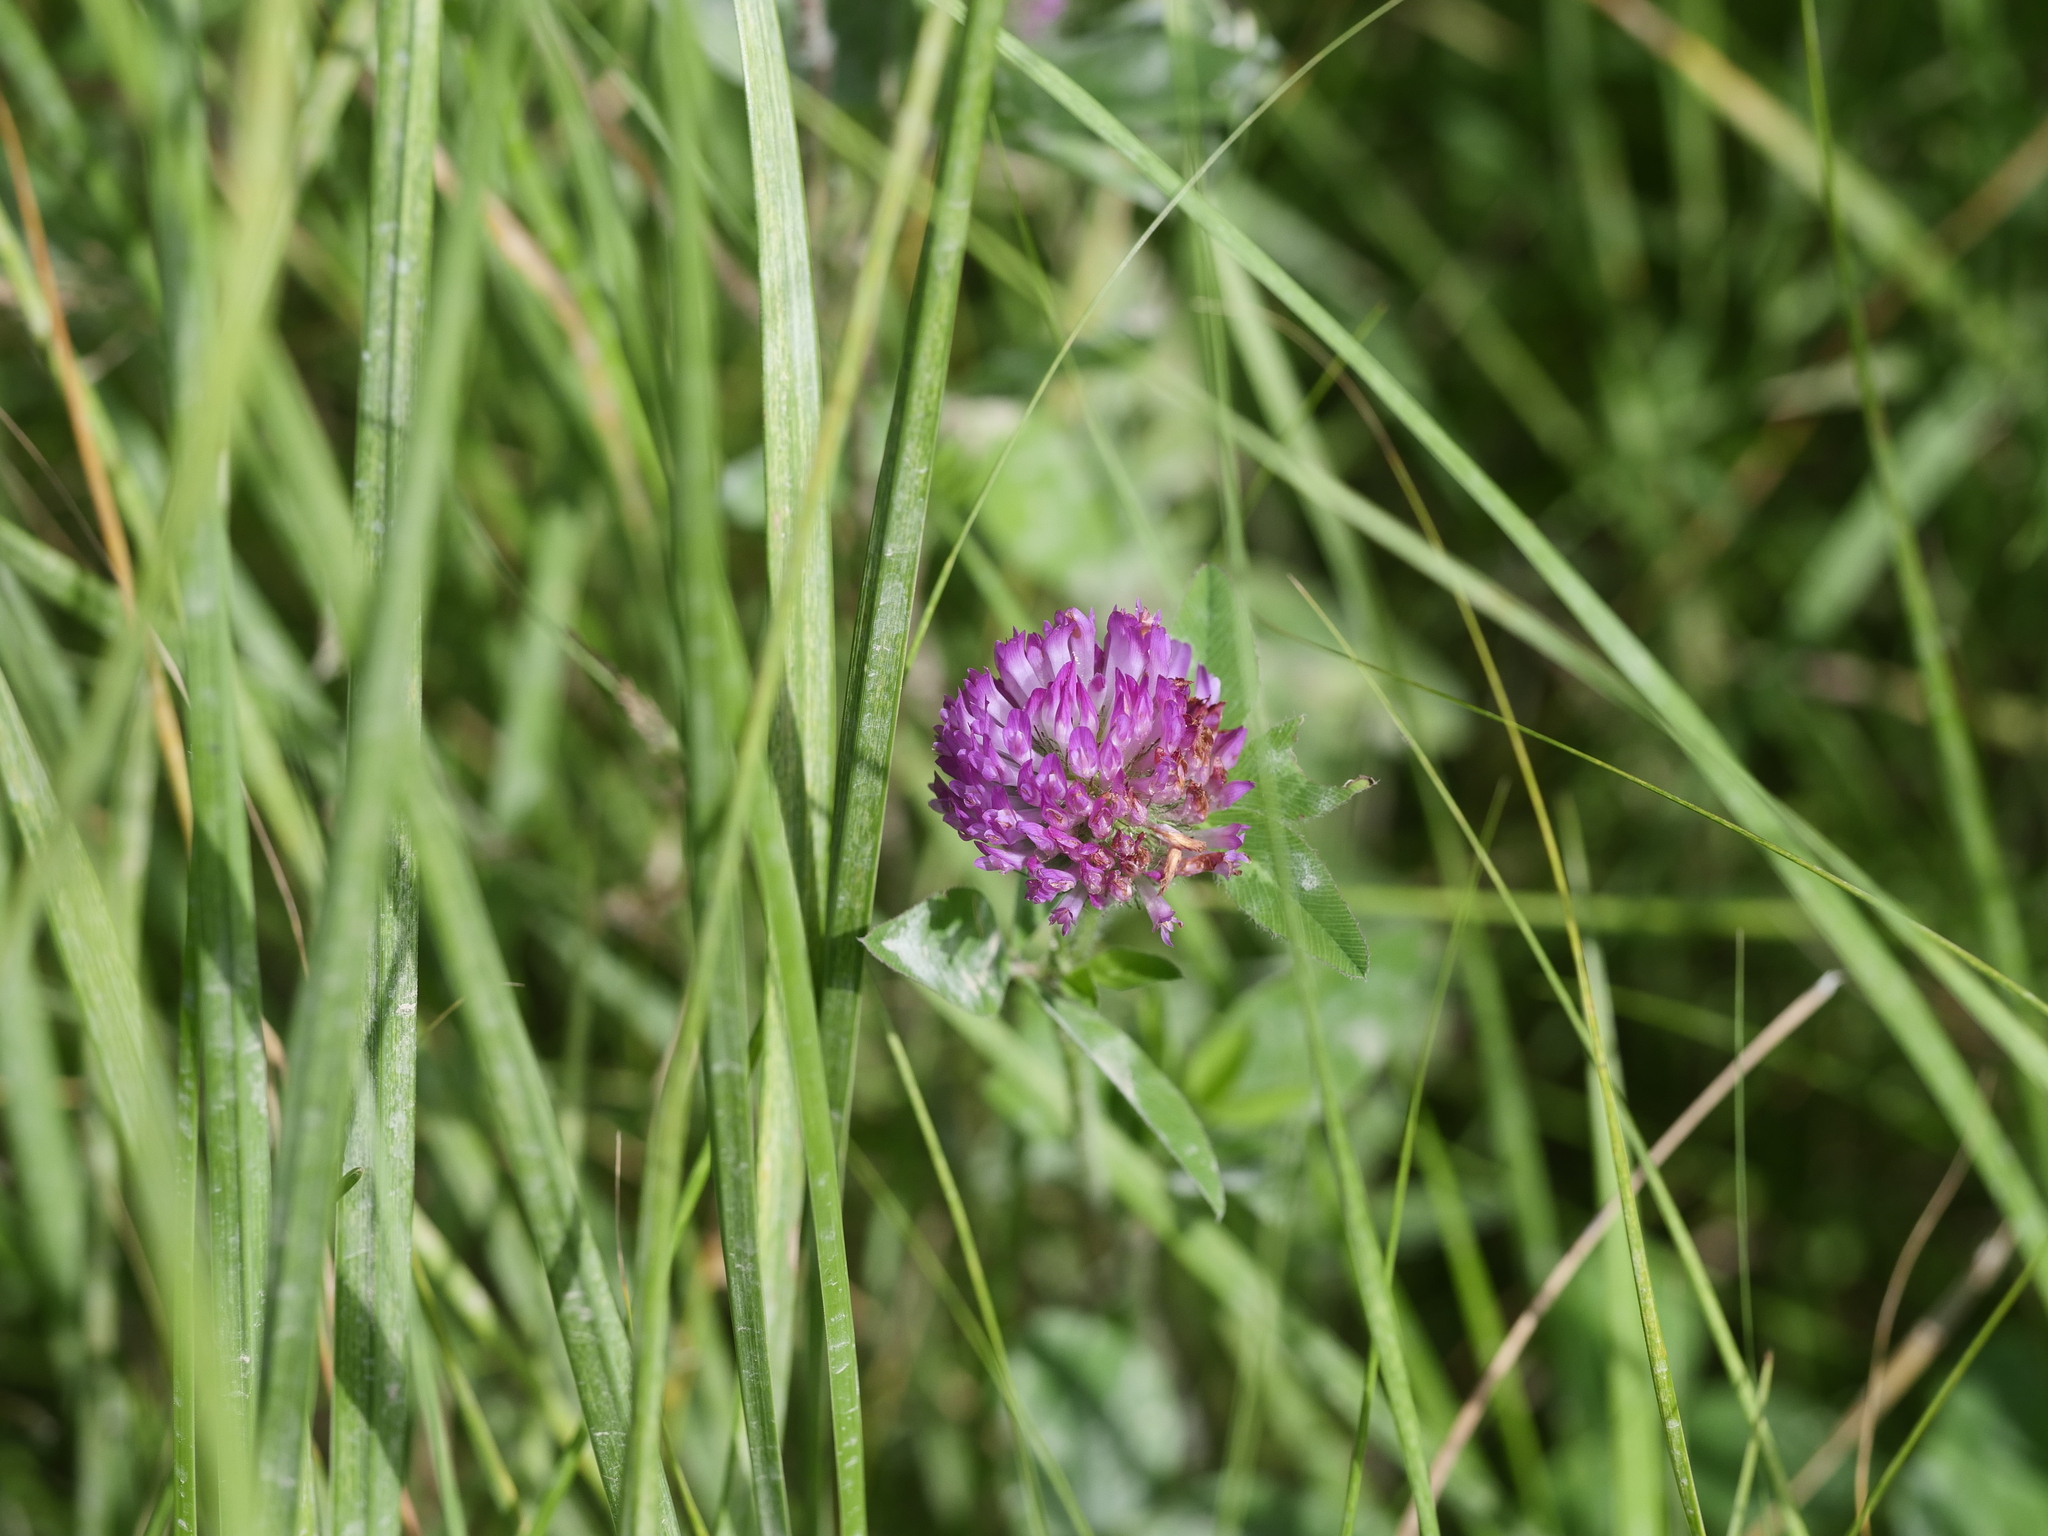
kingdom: Plantae
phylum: Tracheophyta
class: Magnoliopsida
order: Fabales
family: Fabaceae
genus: Trifolium
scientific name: Trifolium pratense
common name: Red clover
